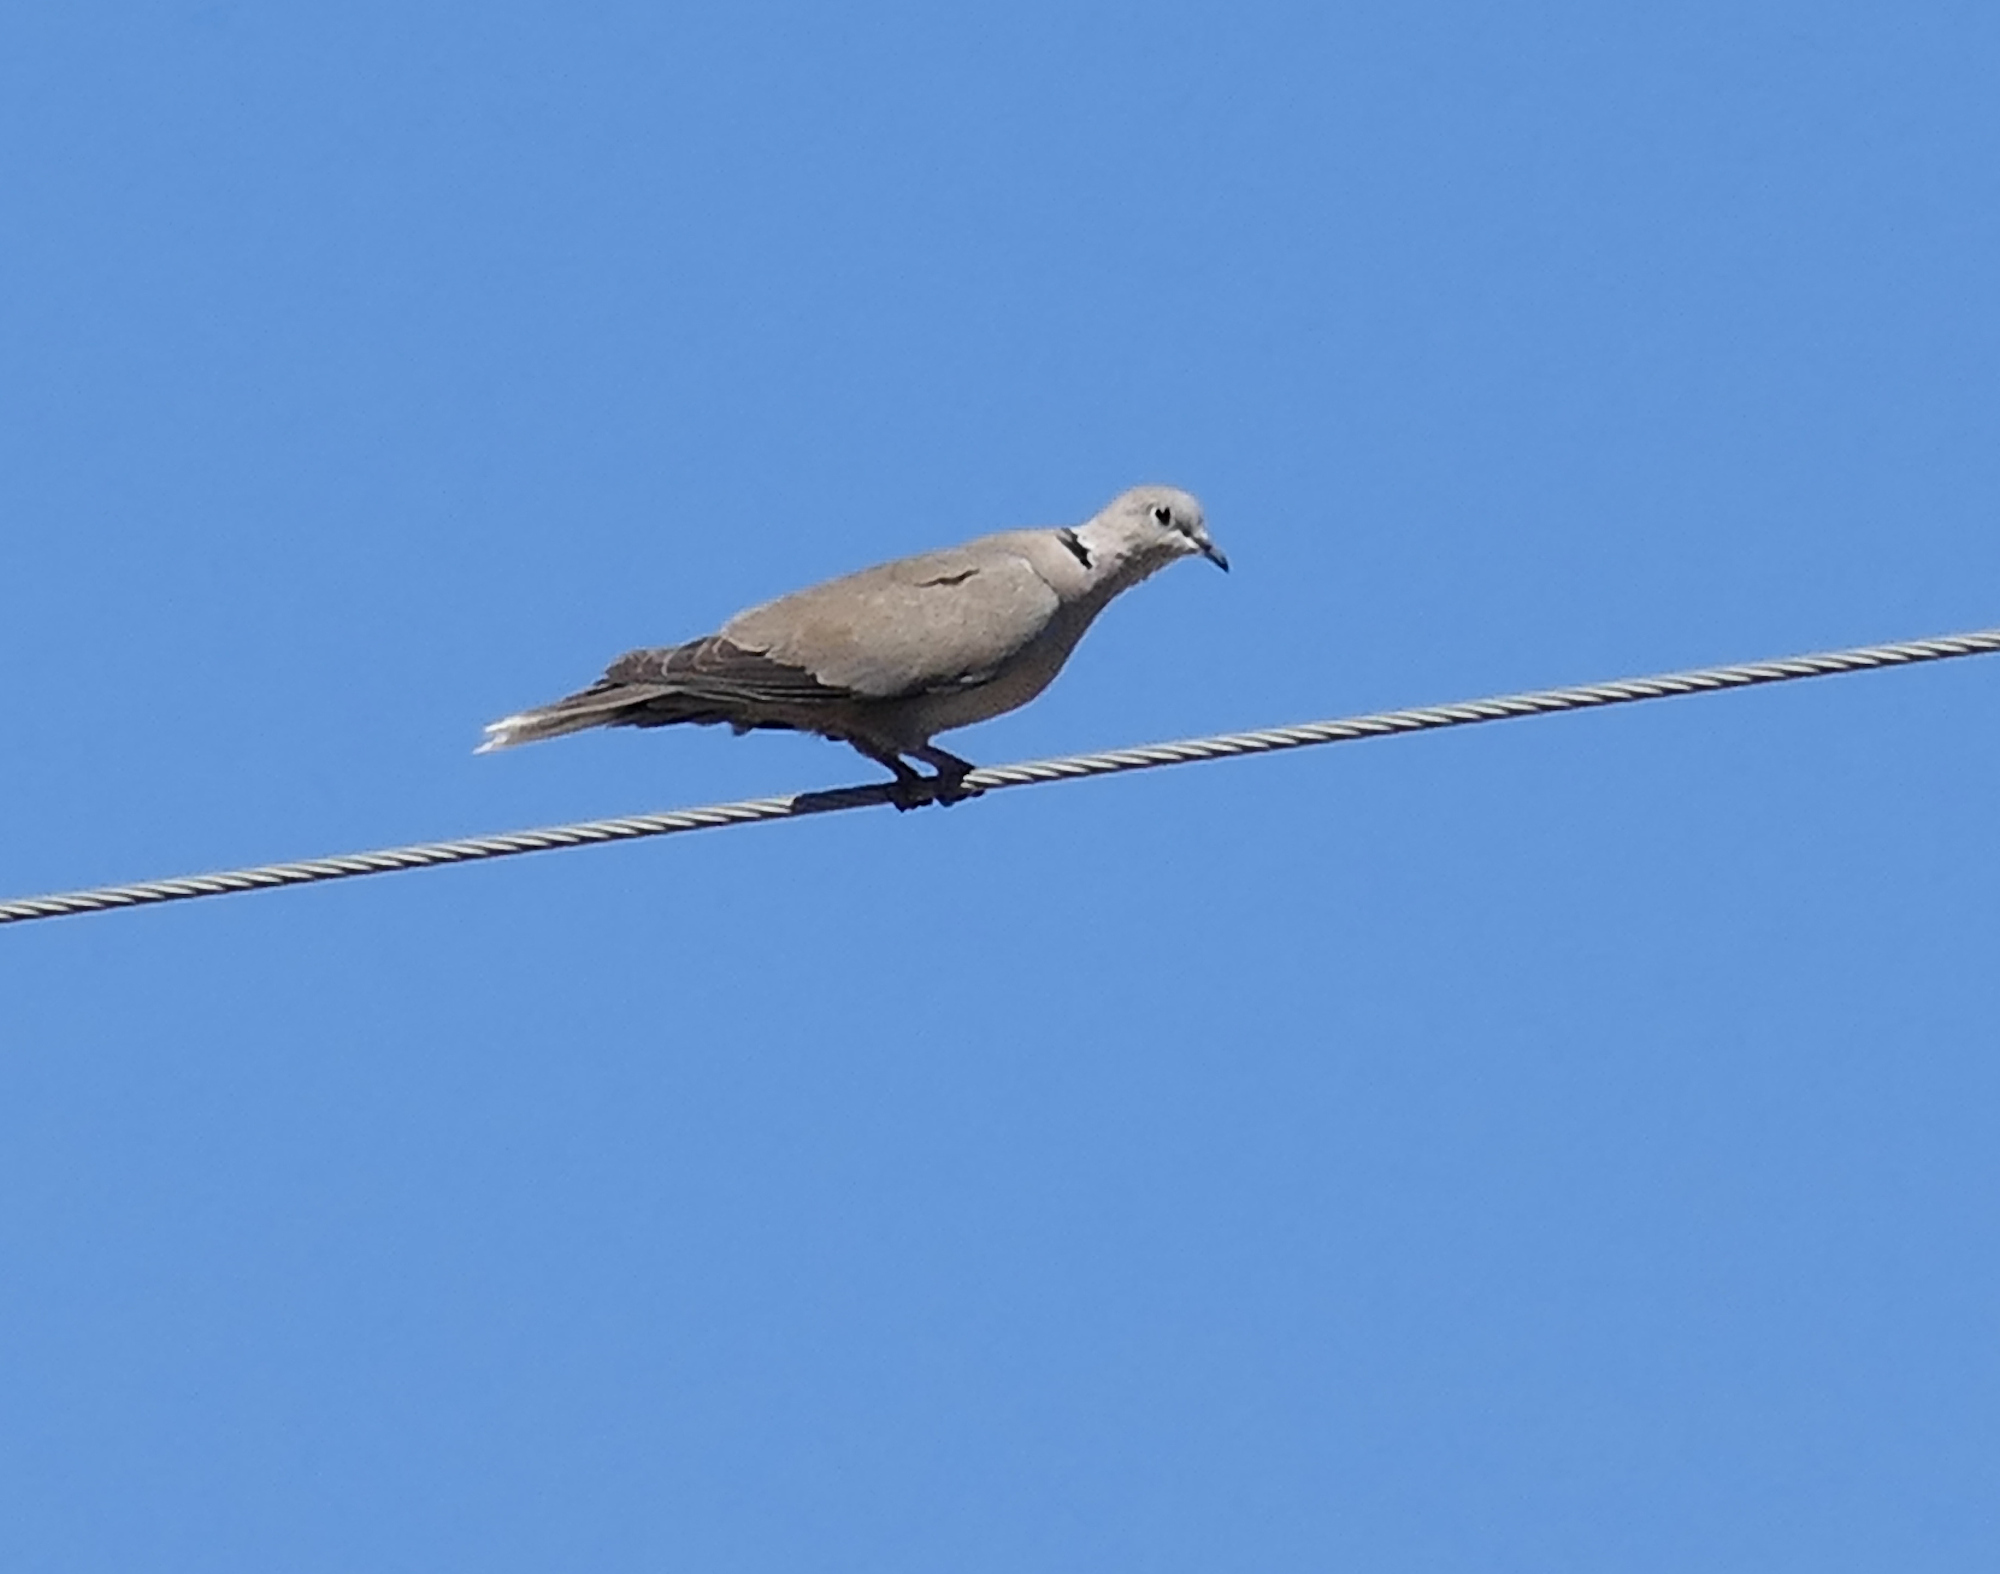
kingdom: Animalia
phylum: Chordata
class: Aves
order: Columbiformes
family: Columbidae
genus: Streptopelia
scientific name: Streptopelia decaocto
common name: Eurasian collared dove
